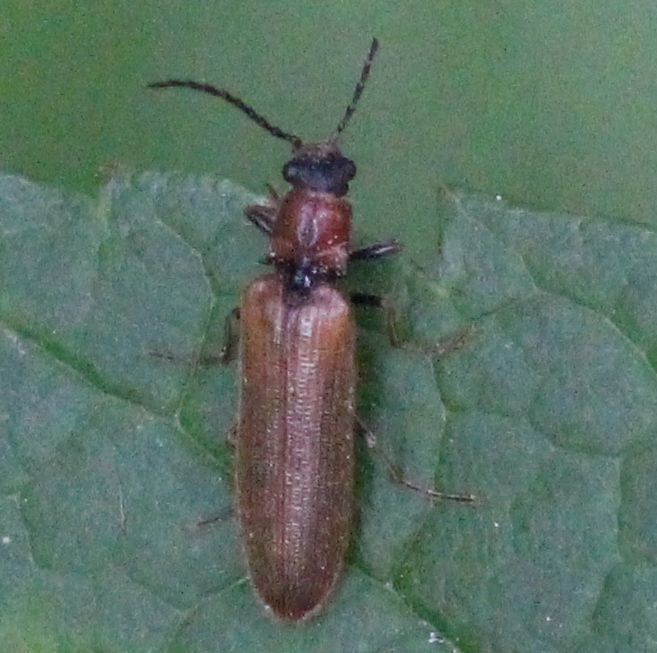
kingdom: Animalia
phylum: Arthropoda
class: Insecta
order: Coleoptera
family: Elateridae
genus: Denticollis
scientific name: Denticollis linearis
